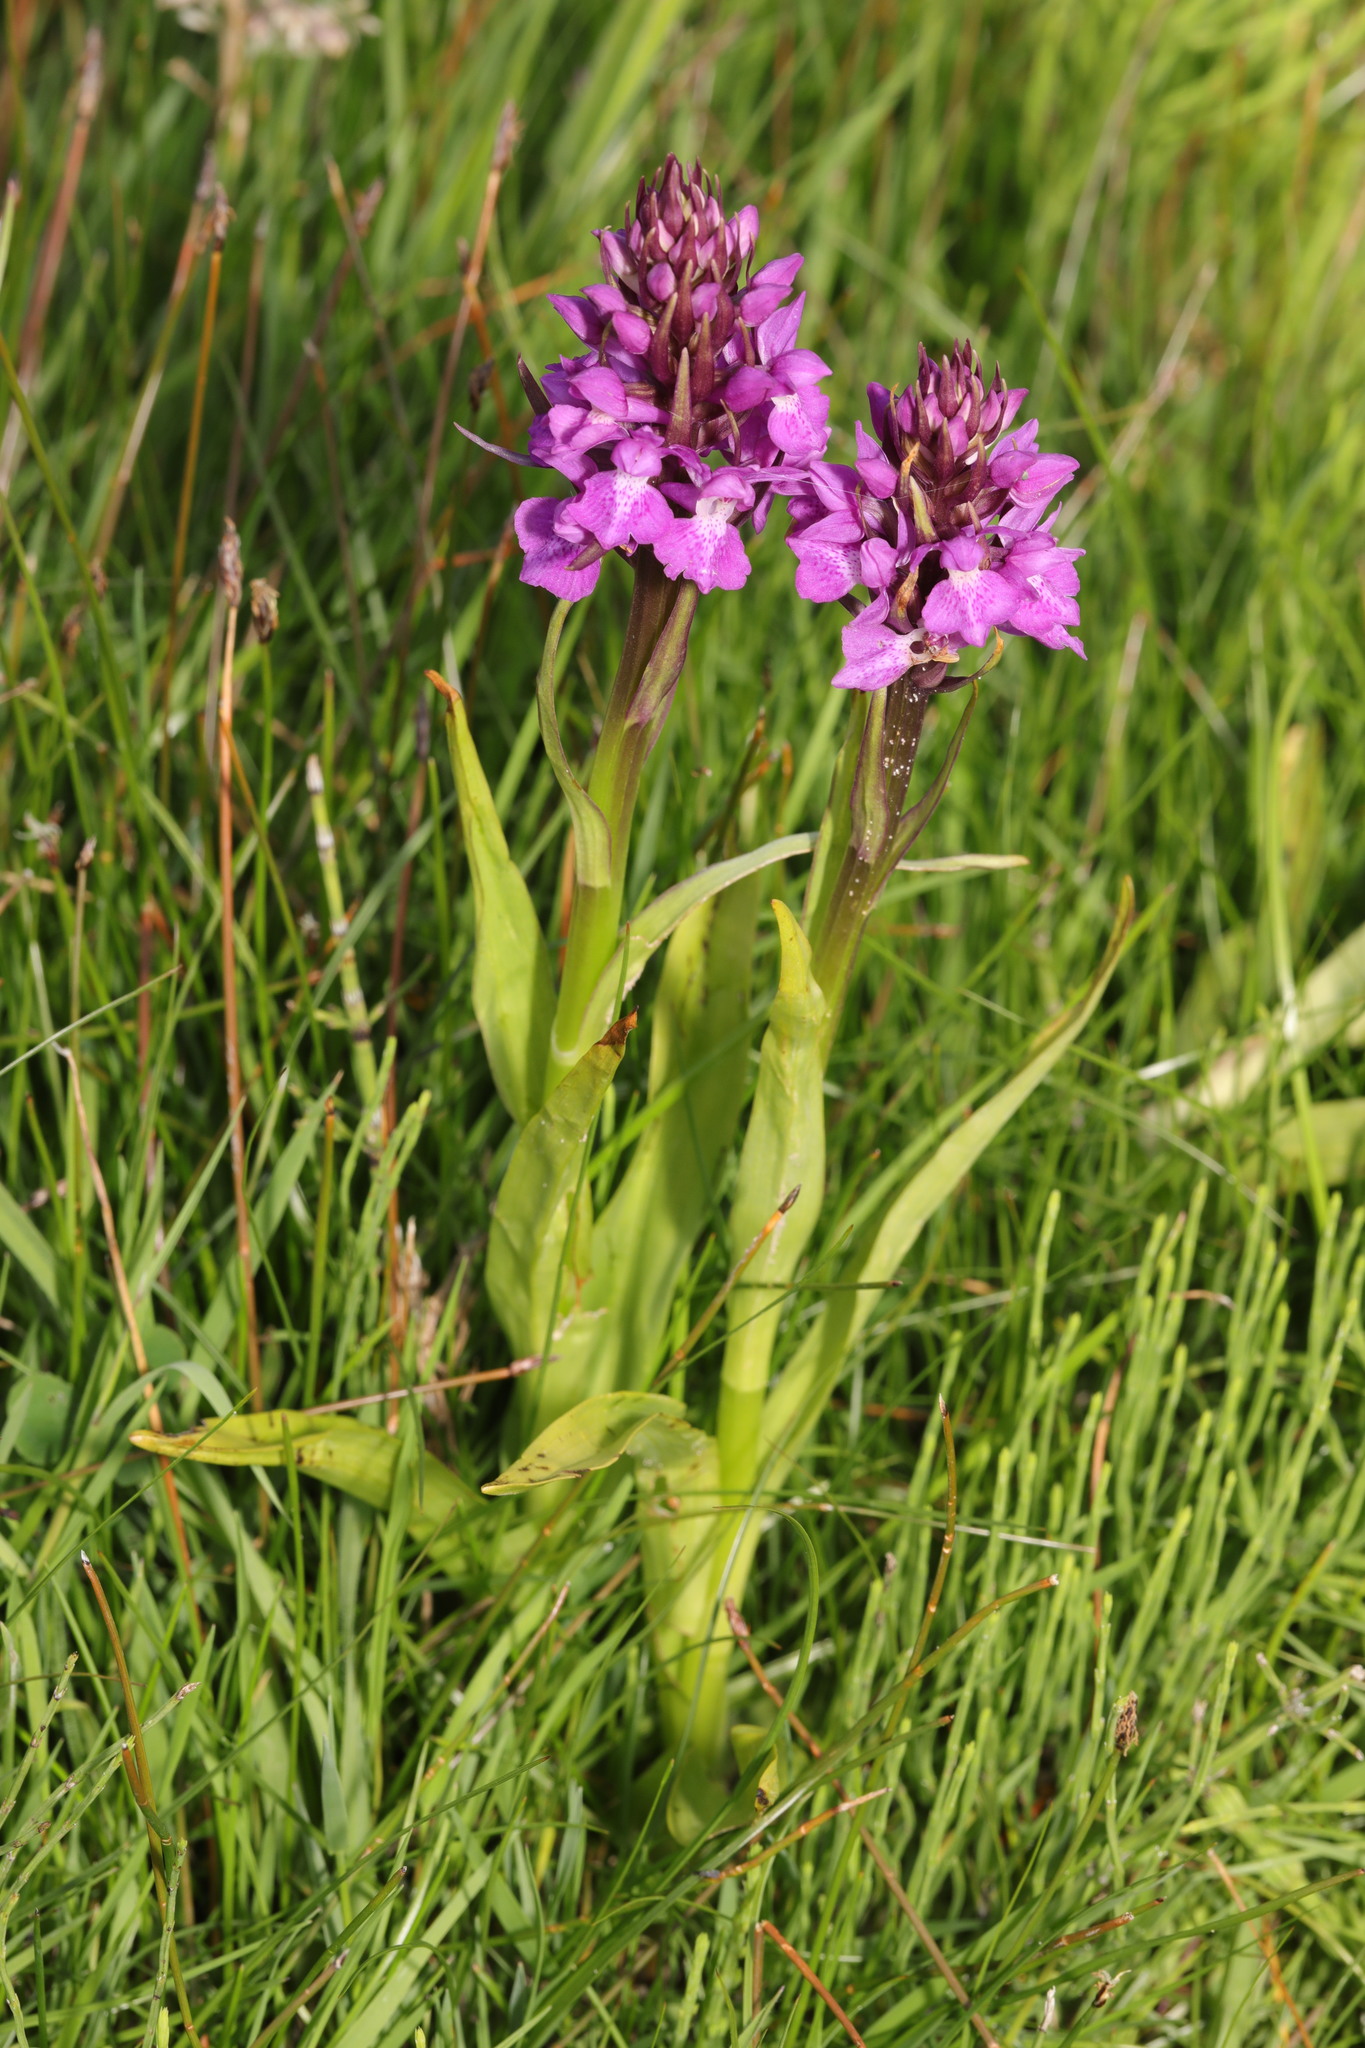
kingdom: Plantae
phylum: Tracheophyta
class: Liliopsida
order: Asparagales
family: Orchidaceae
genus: Dactylorhiza
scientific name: Dactylorhiza majalis
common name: Marsh orchid
